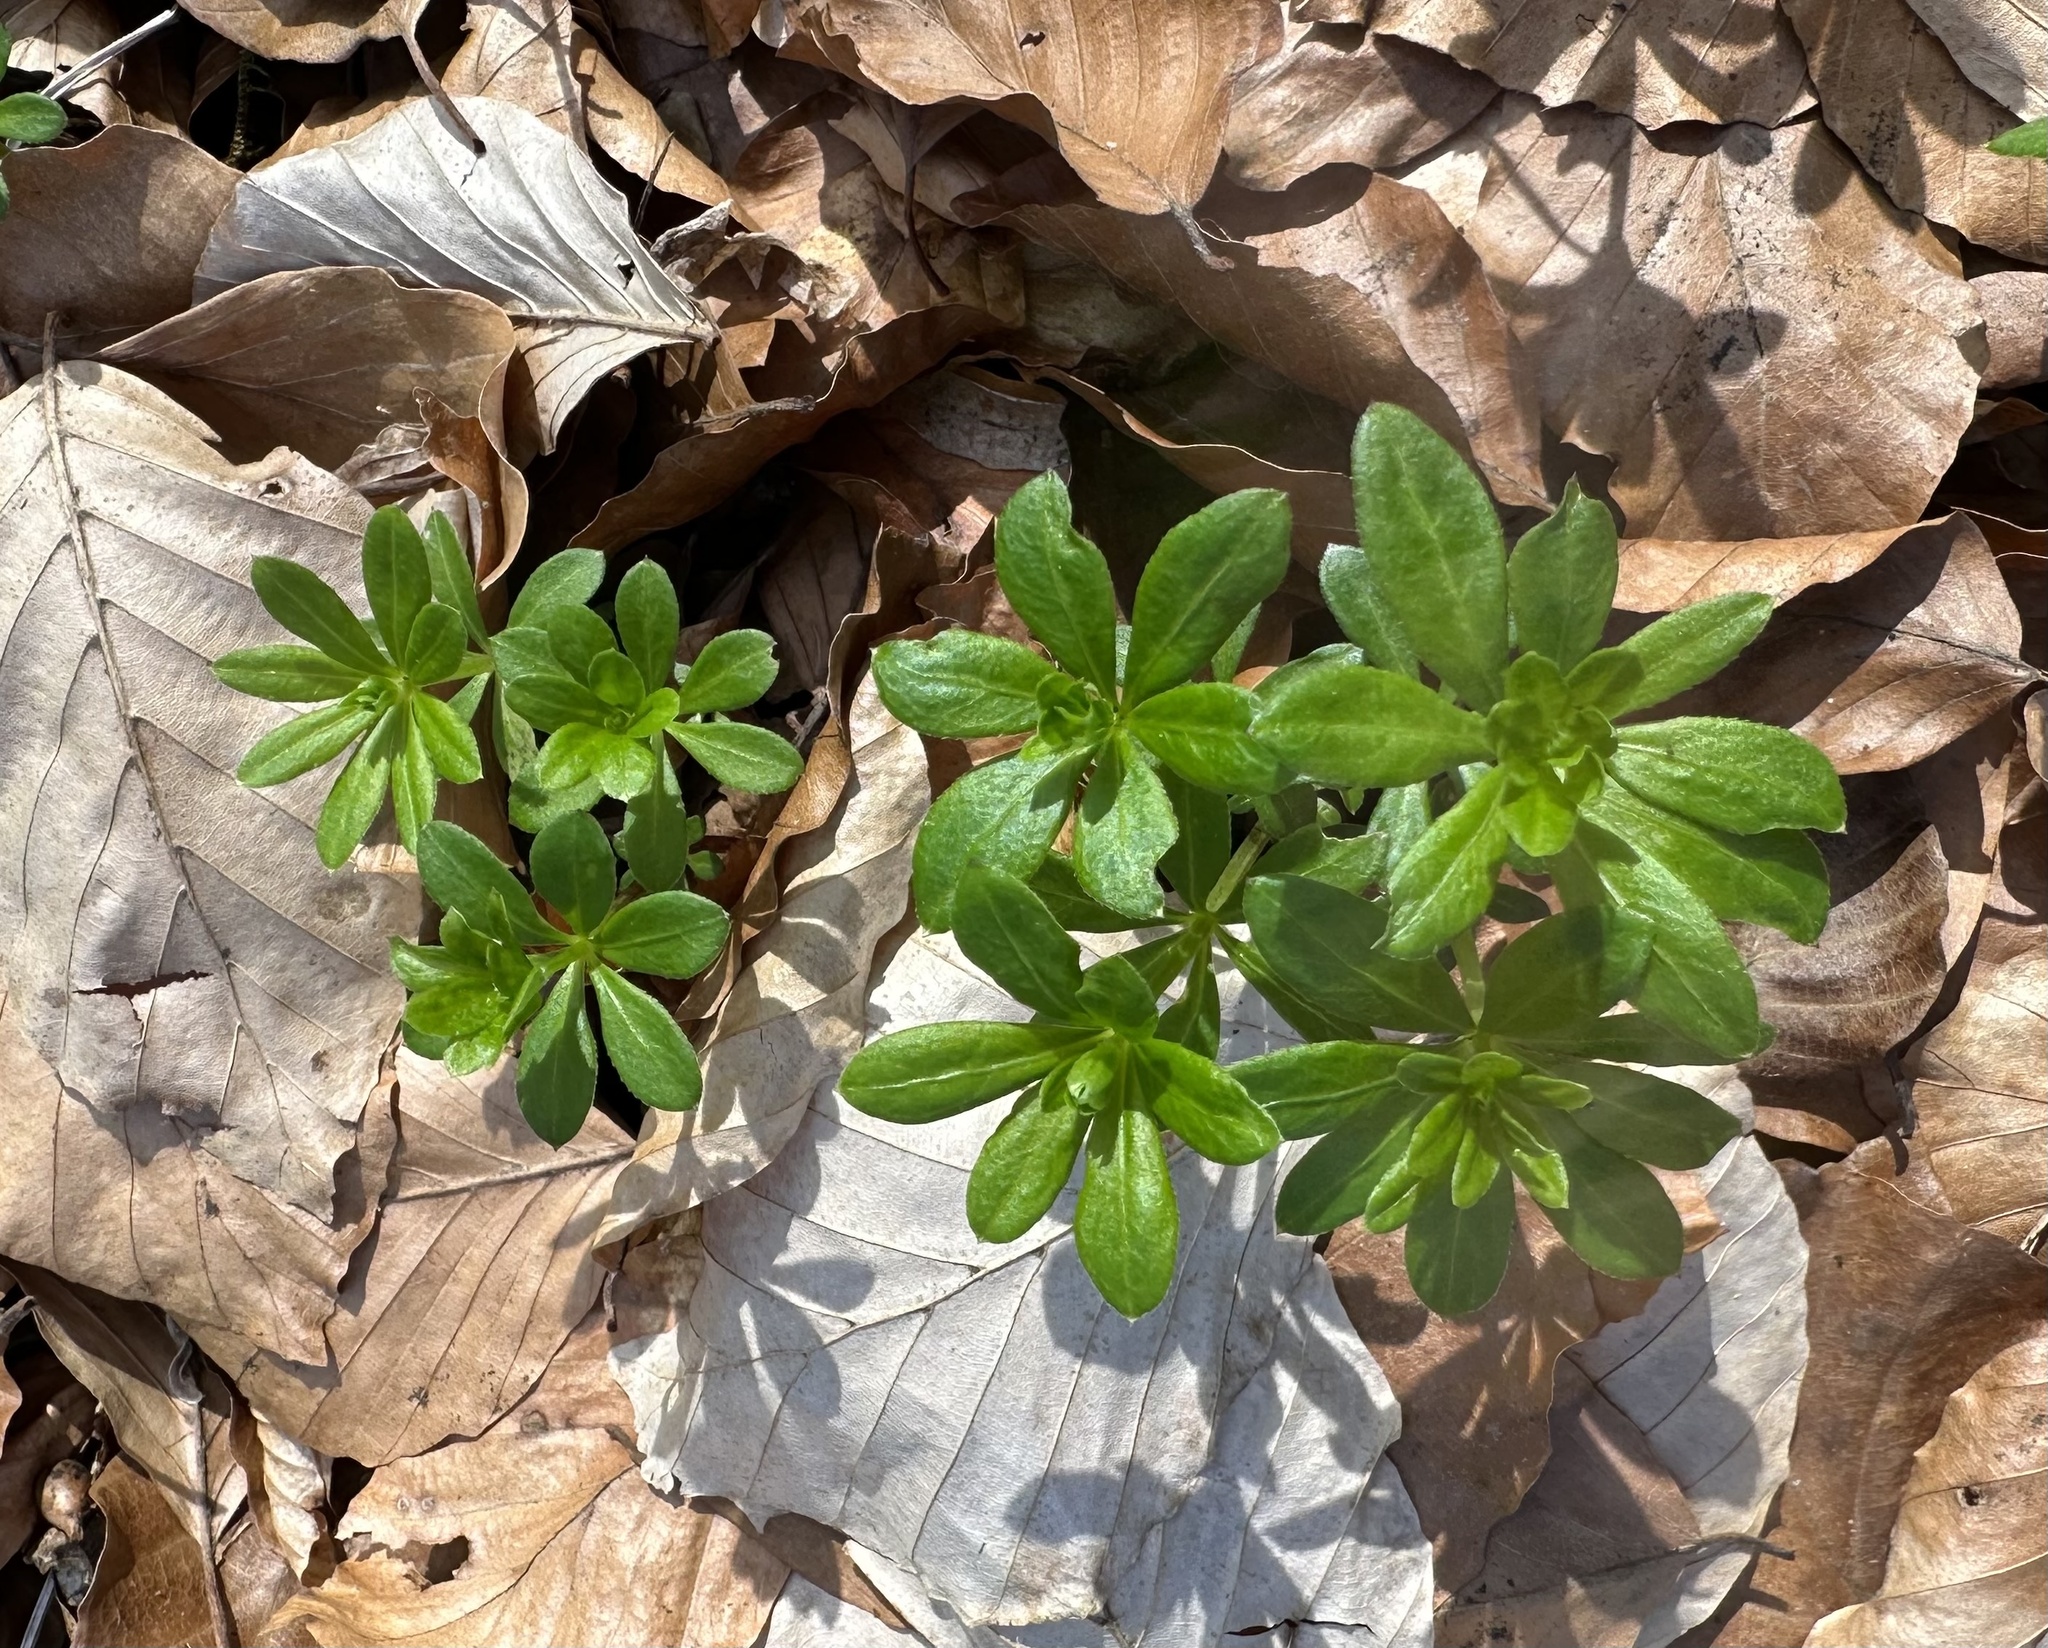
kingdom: Plantae
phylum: Tracheophyta
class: Magnoliopsida
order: Gentianales
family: Rubiaceae
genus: Galium
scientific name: Galium odoratum
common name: Sweet woodruff
